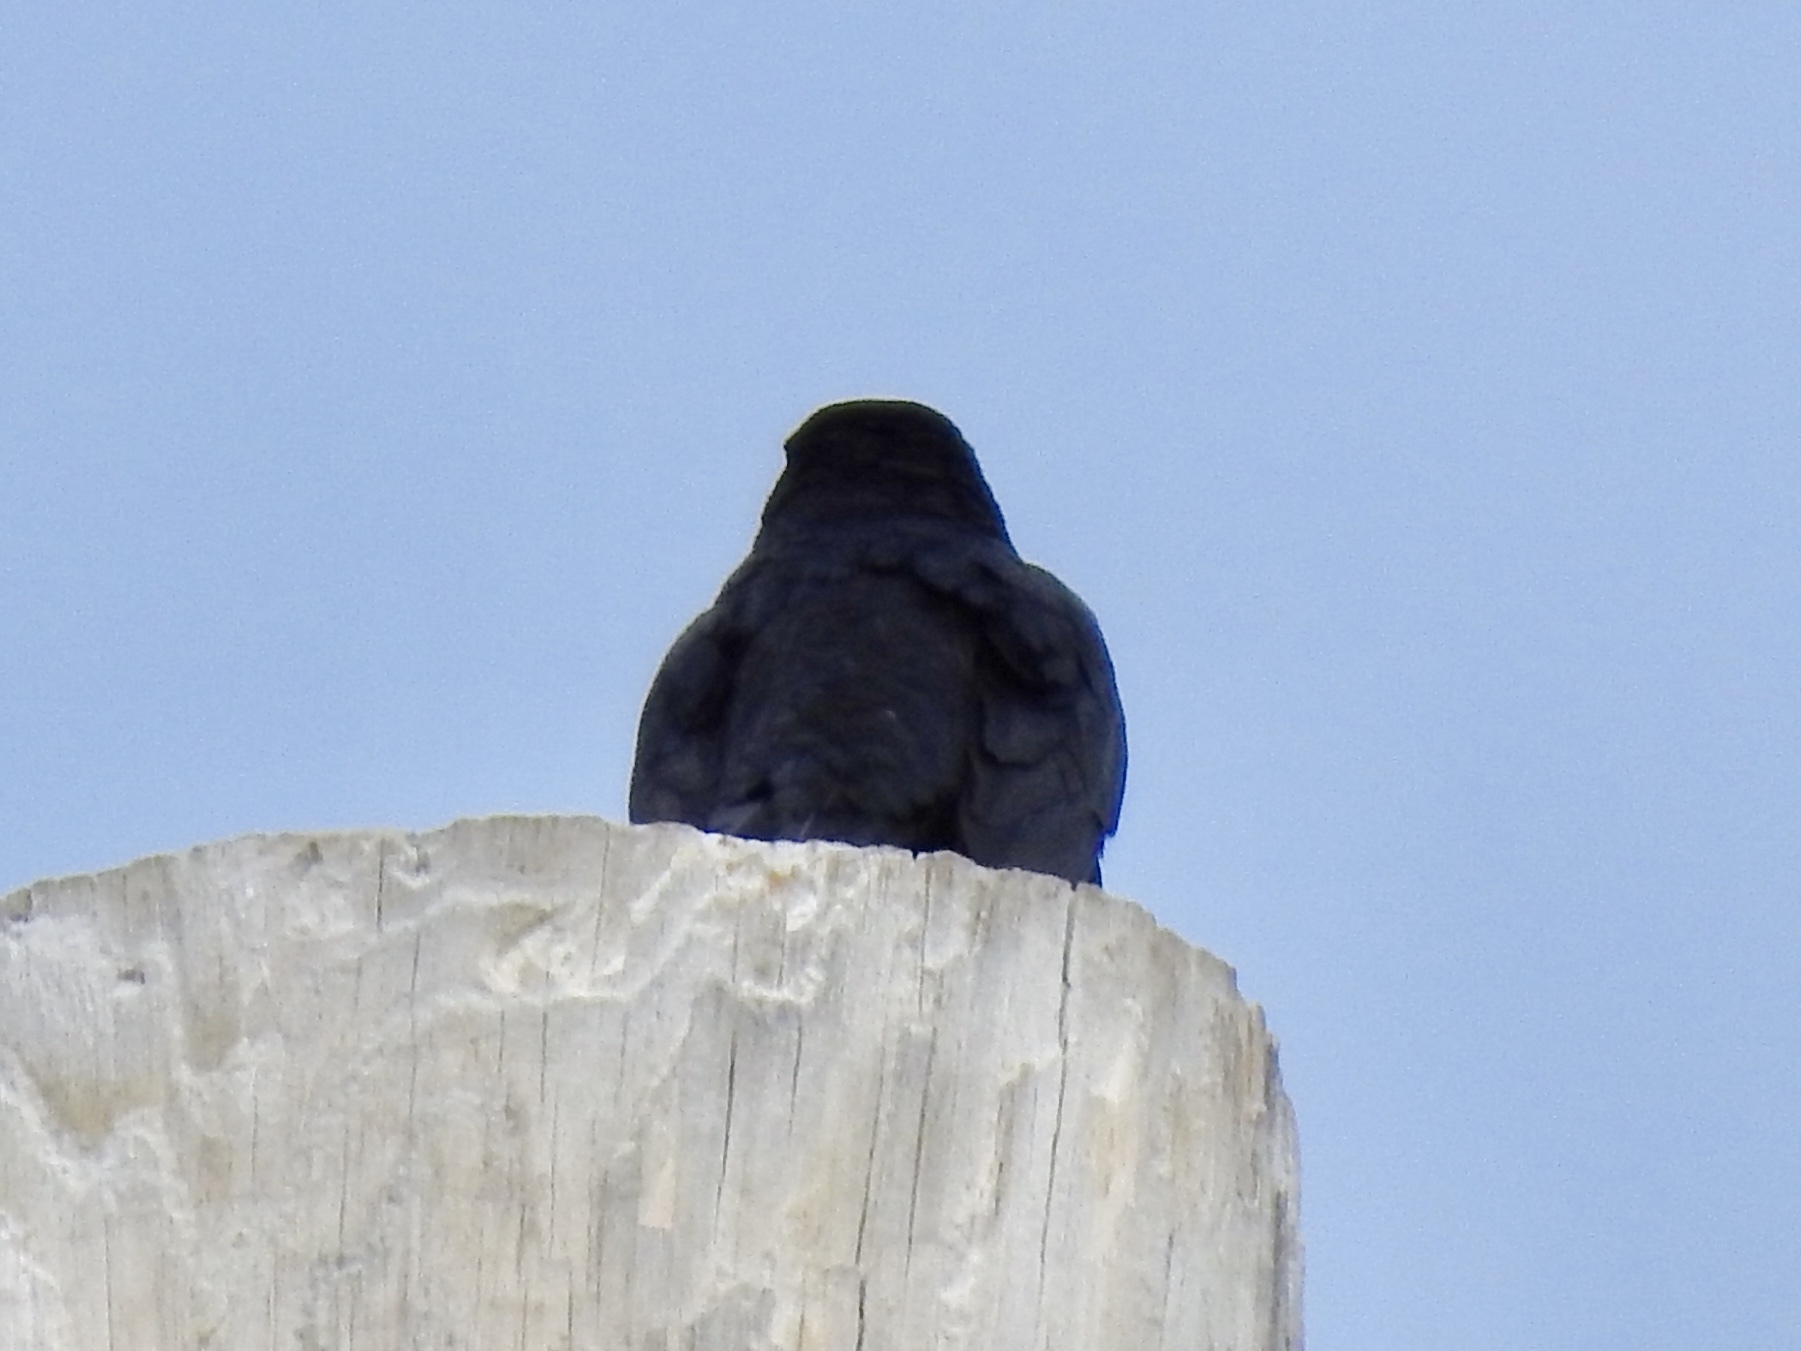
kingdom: Animalia
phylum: Chordata
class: Aves
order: Passeriformes
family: Icteridae
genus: Euphagus
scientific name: Euphagus cyanocephalus
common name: Brewer's blackbird
